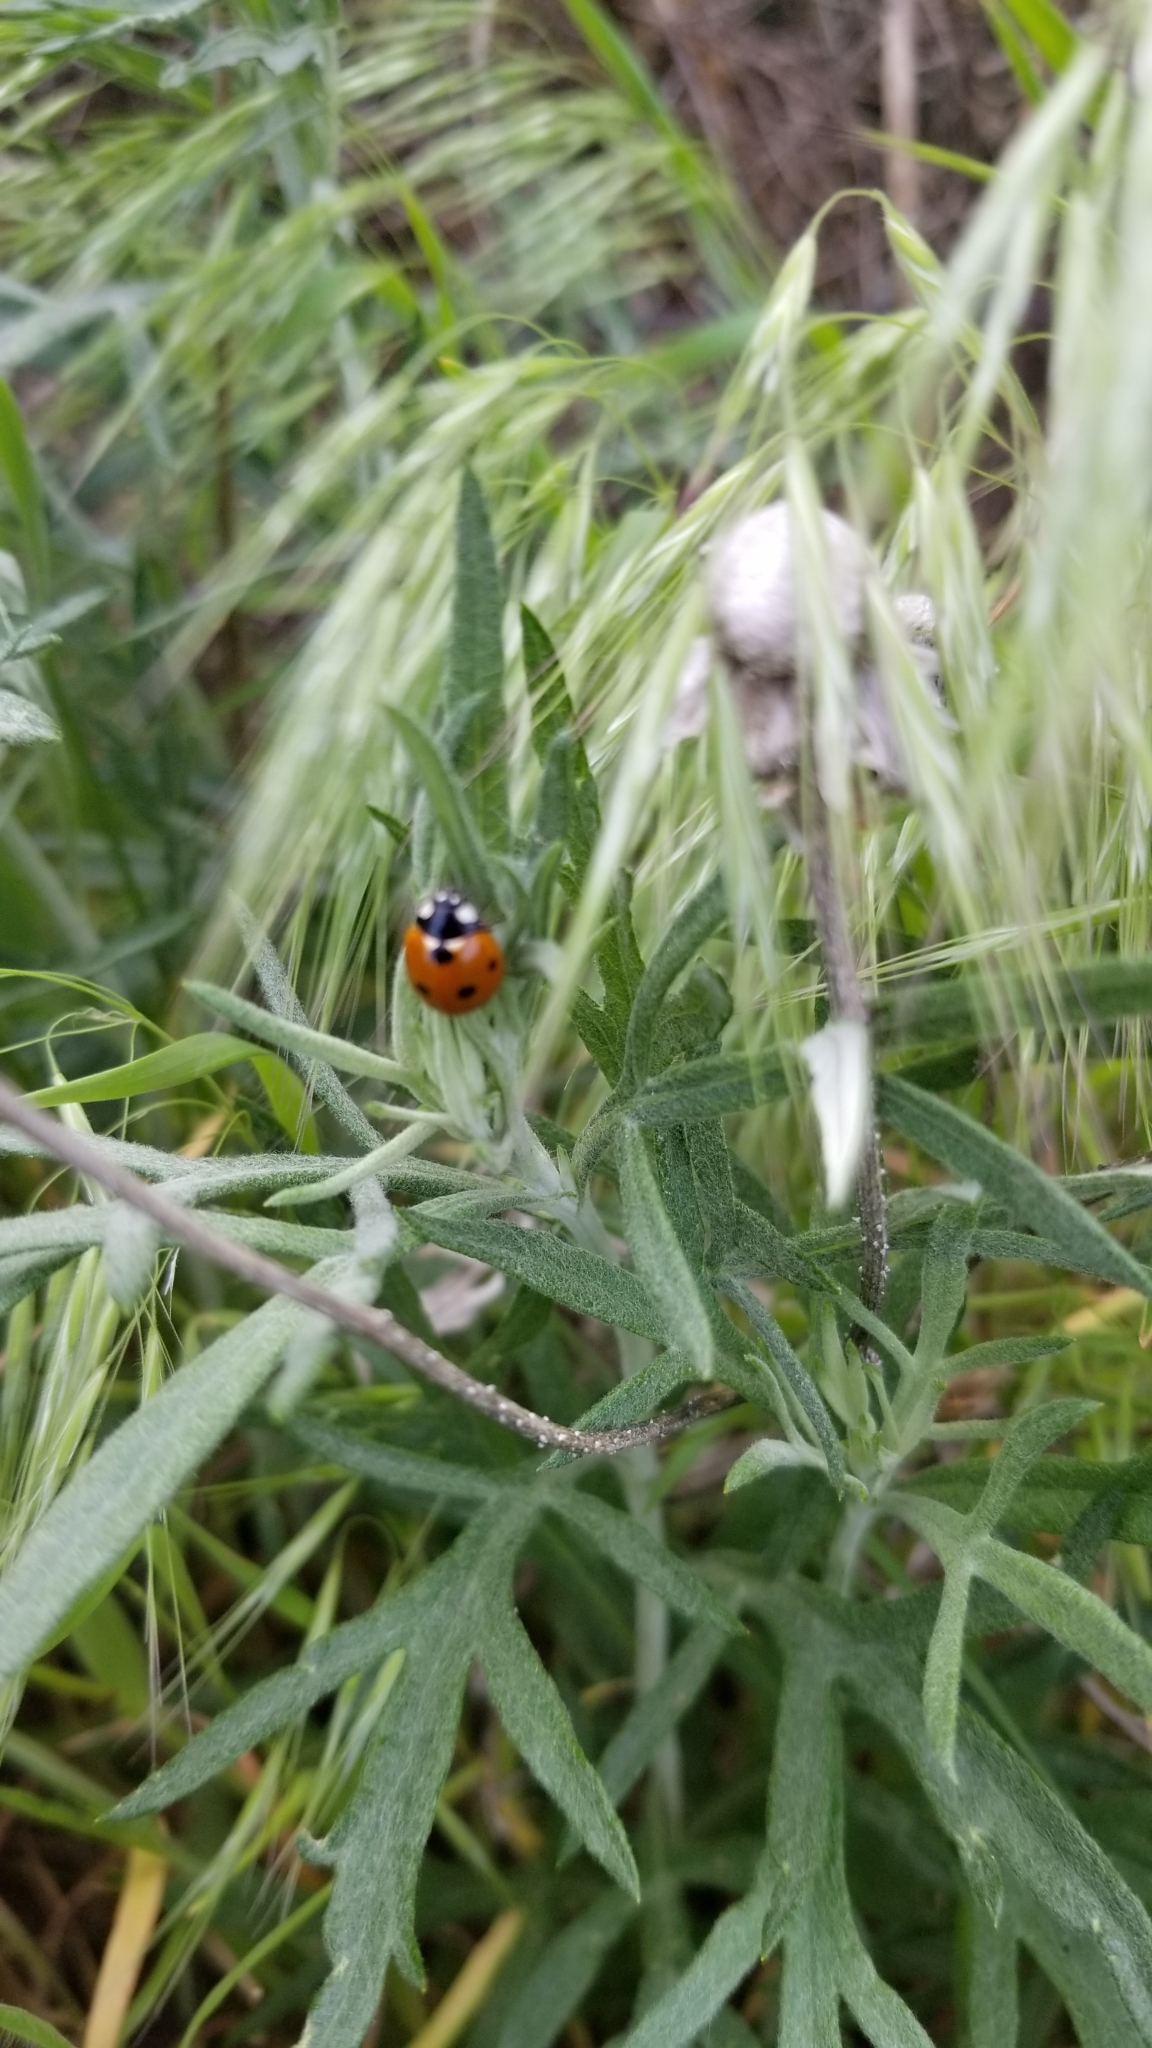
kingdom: Animalia
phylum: Arthropoda
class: Insecta
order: Coleoptera
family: Coccinellidae
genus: Coccinella
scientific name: Coccinella septempunctata
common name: Sevenspotted lady beetle
